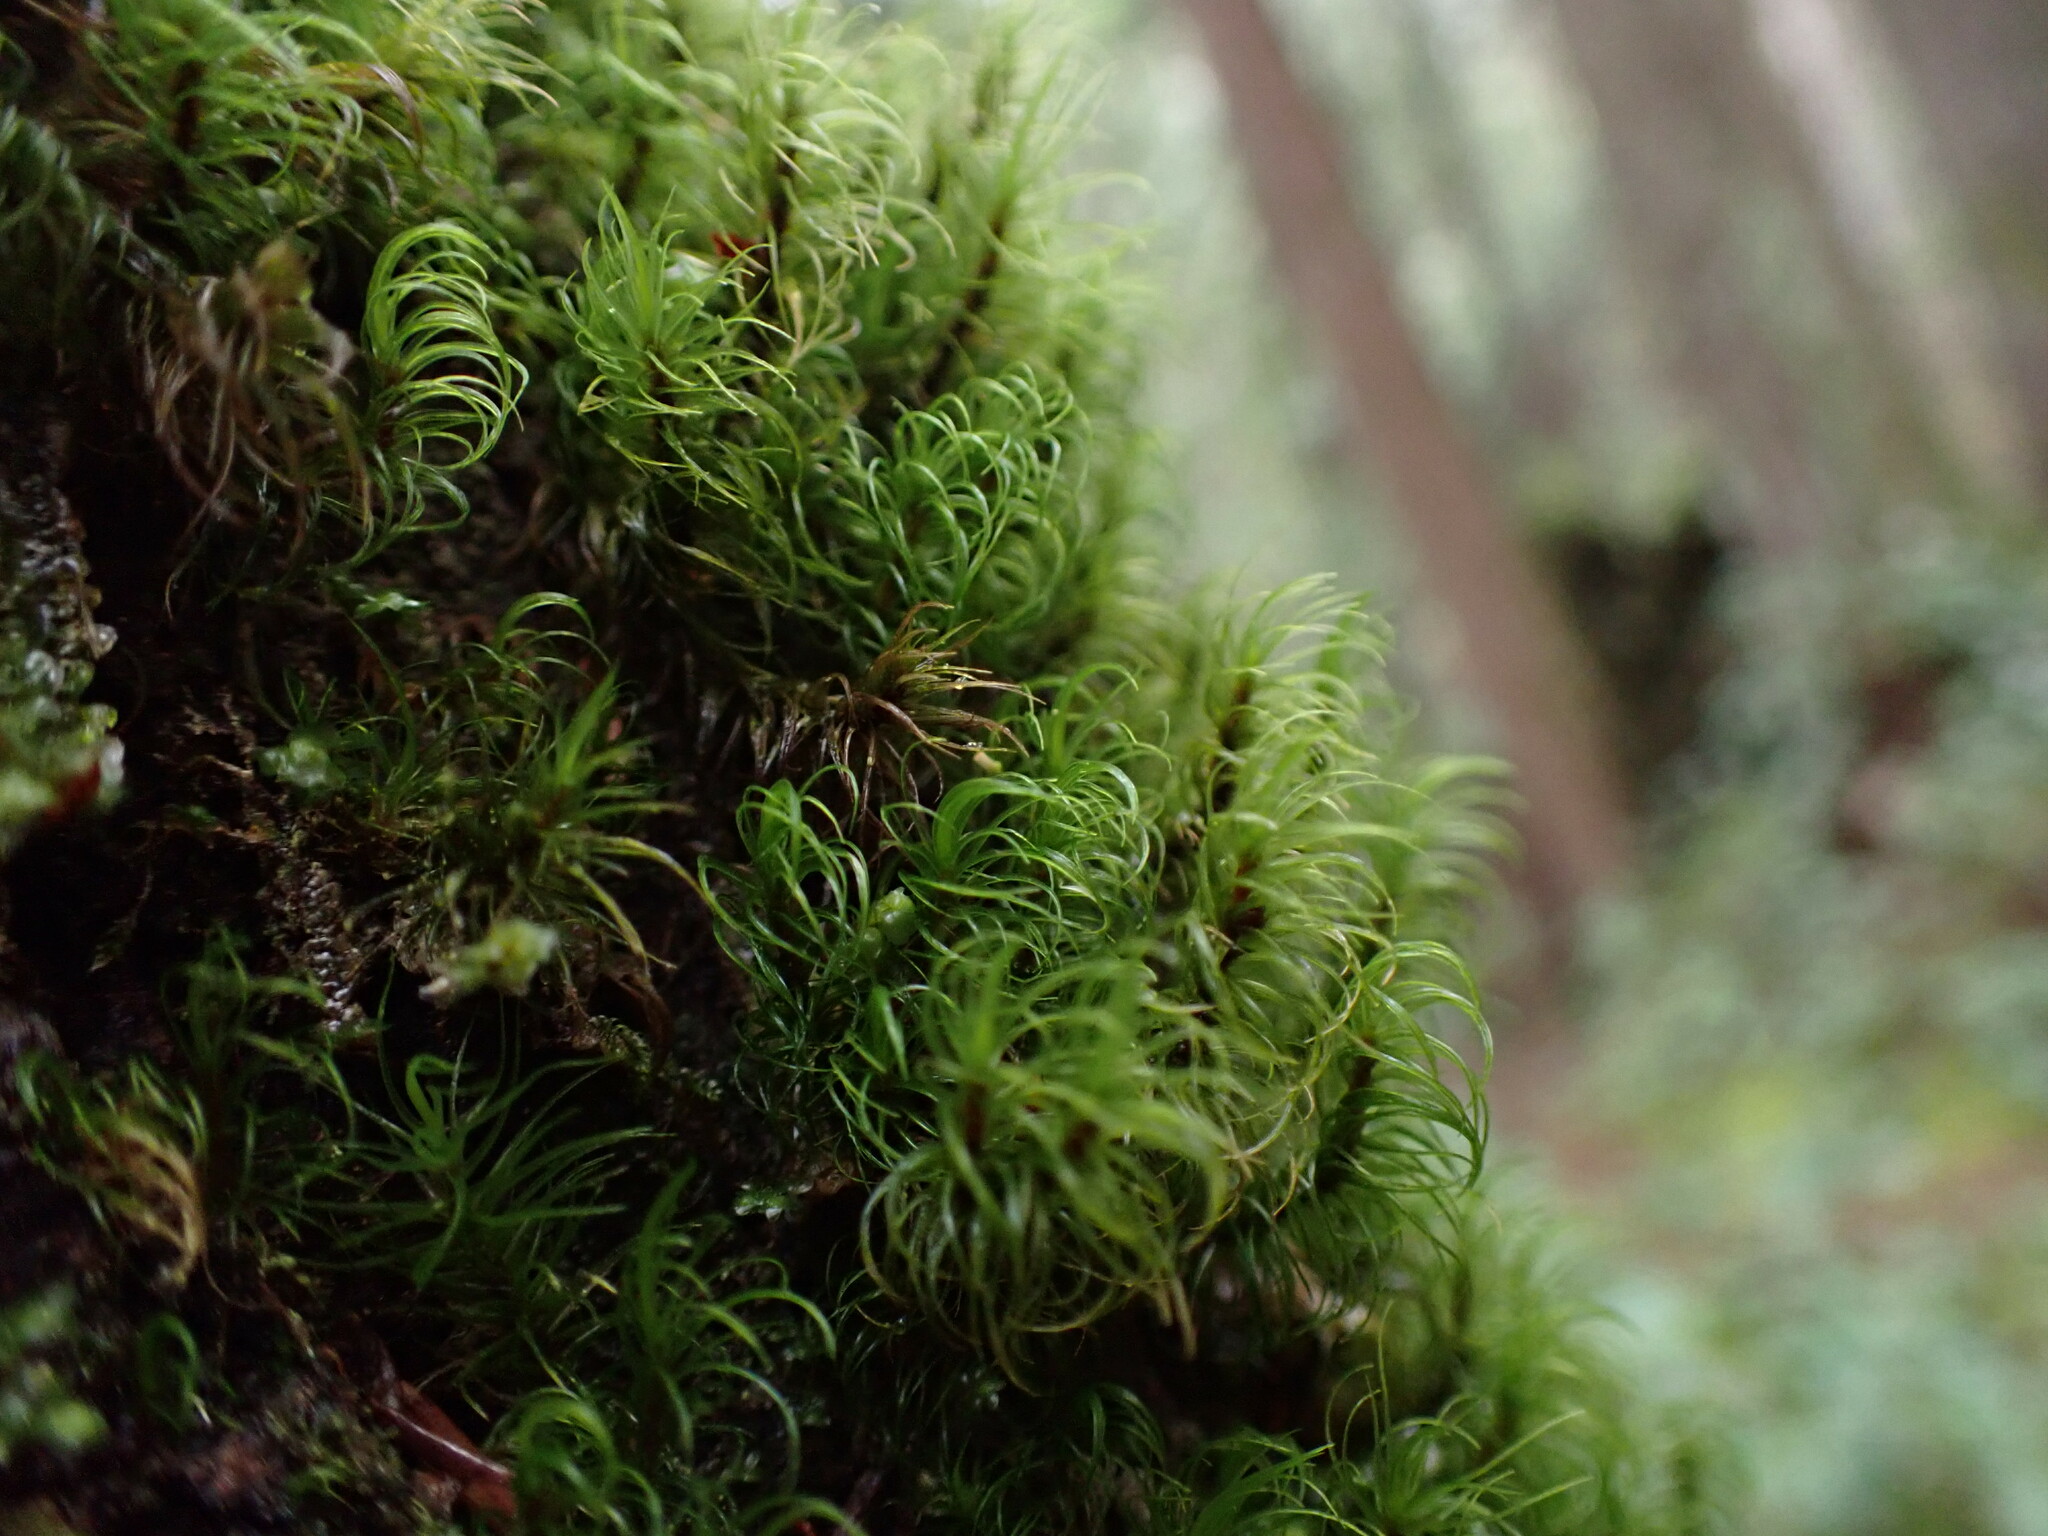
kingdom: Plantae
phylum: Bryophyta
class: Bryopsida
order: Dicranales
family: Dicranaceae
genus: Dicranum
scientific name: Dicranum fuscescens
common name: Curly heron's-bill moss
